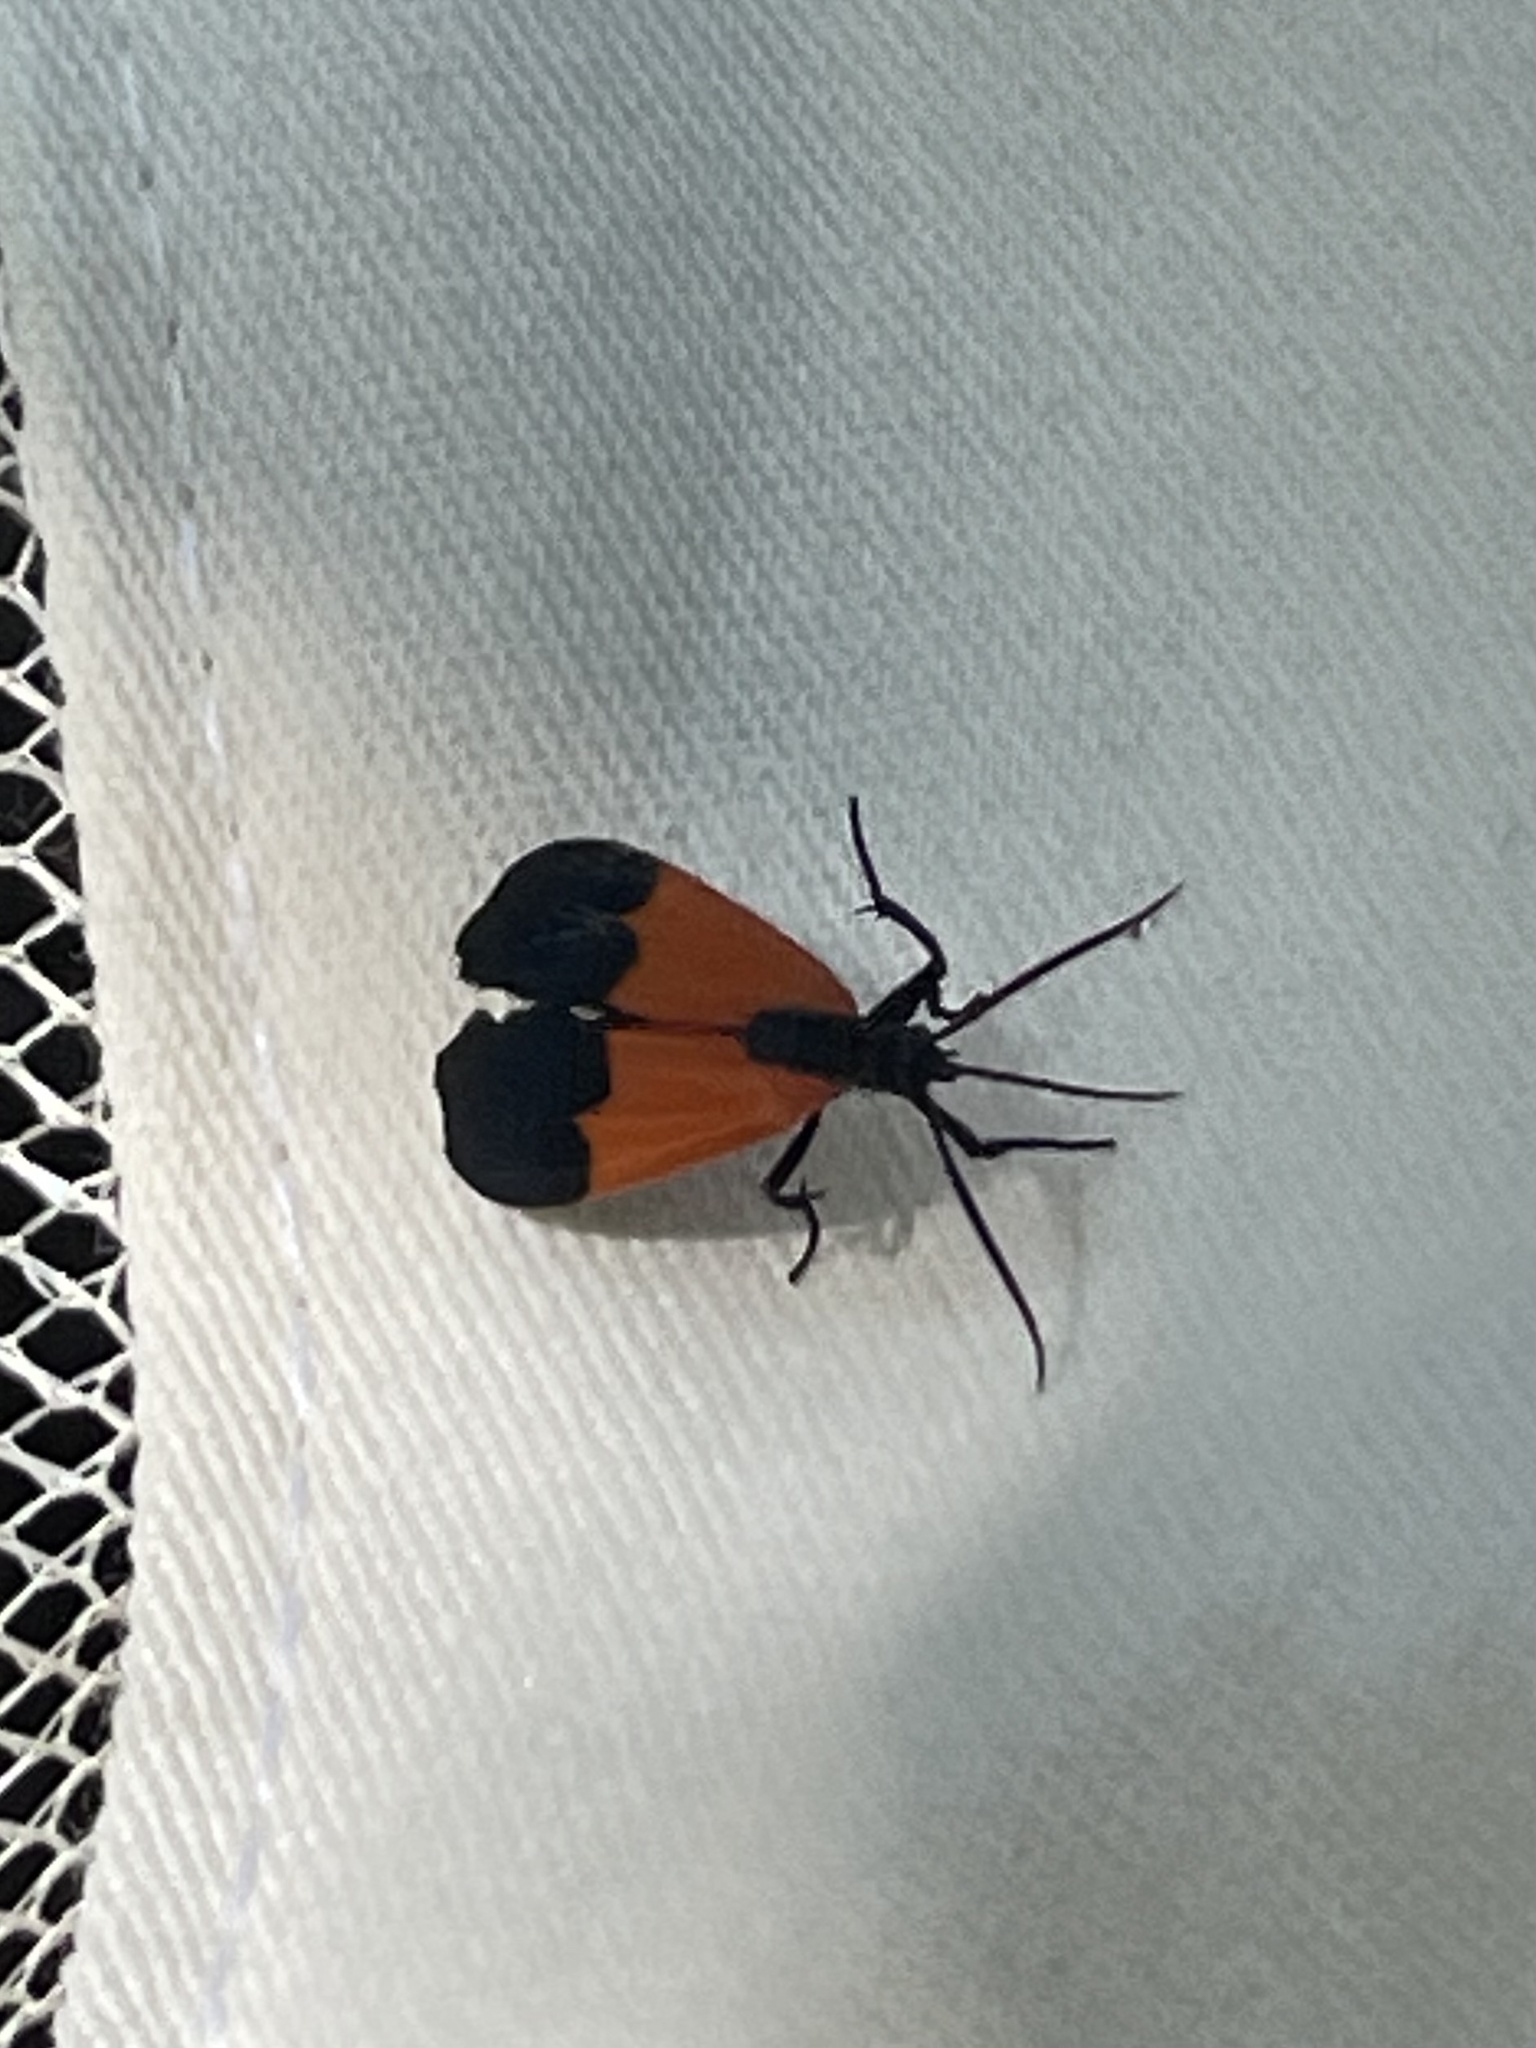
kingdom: Animalia
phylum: Arthropoda
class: Insecta
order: Lepidoptera
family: Erebidae
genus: Lycomorpha
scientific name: Lycomorpha pholus
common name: Black-and-yellow lichen moth
